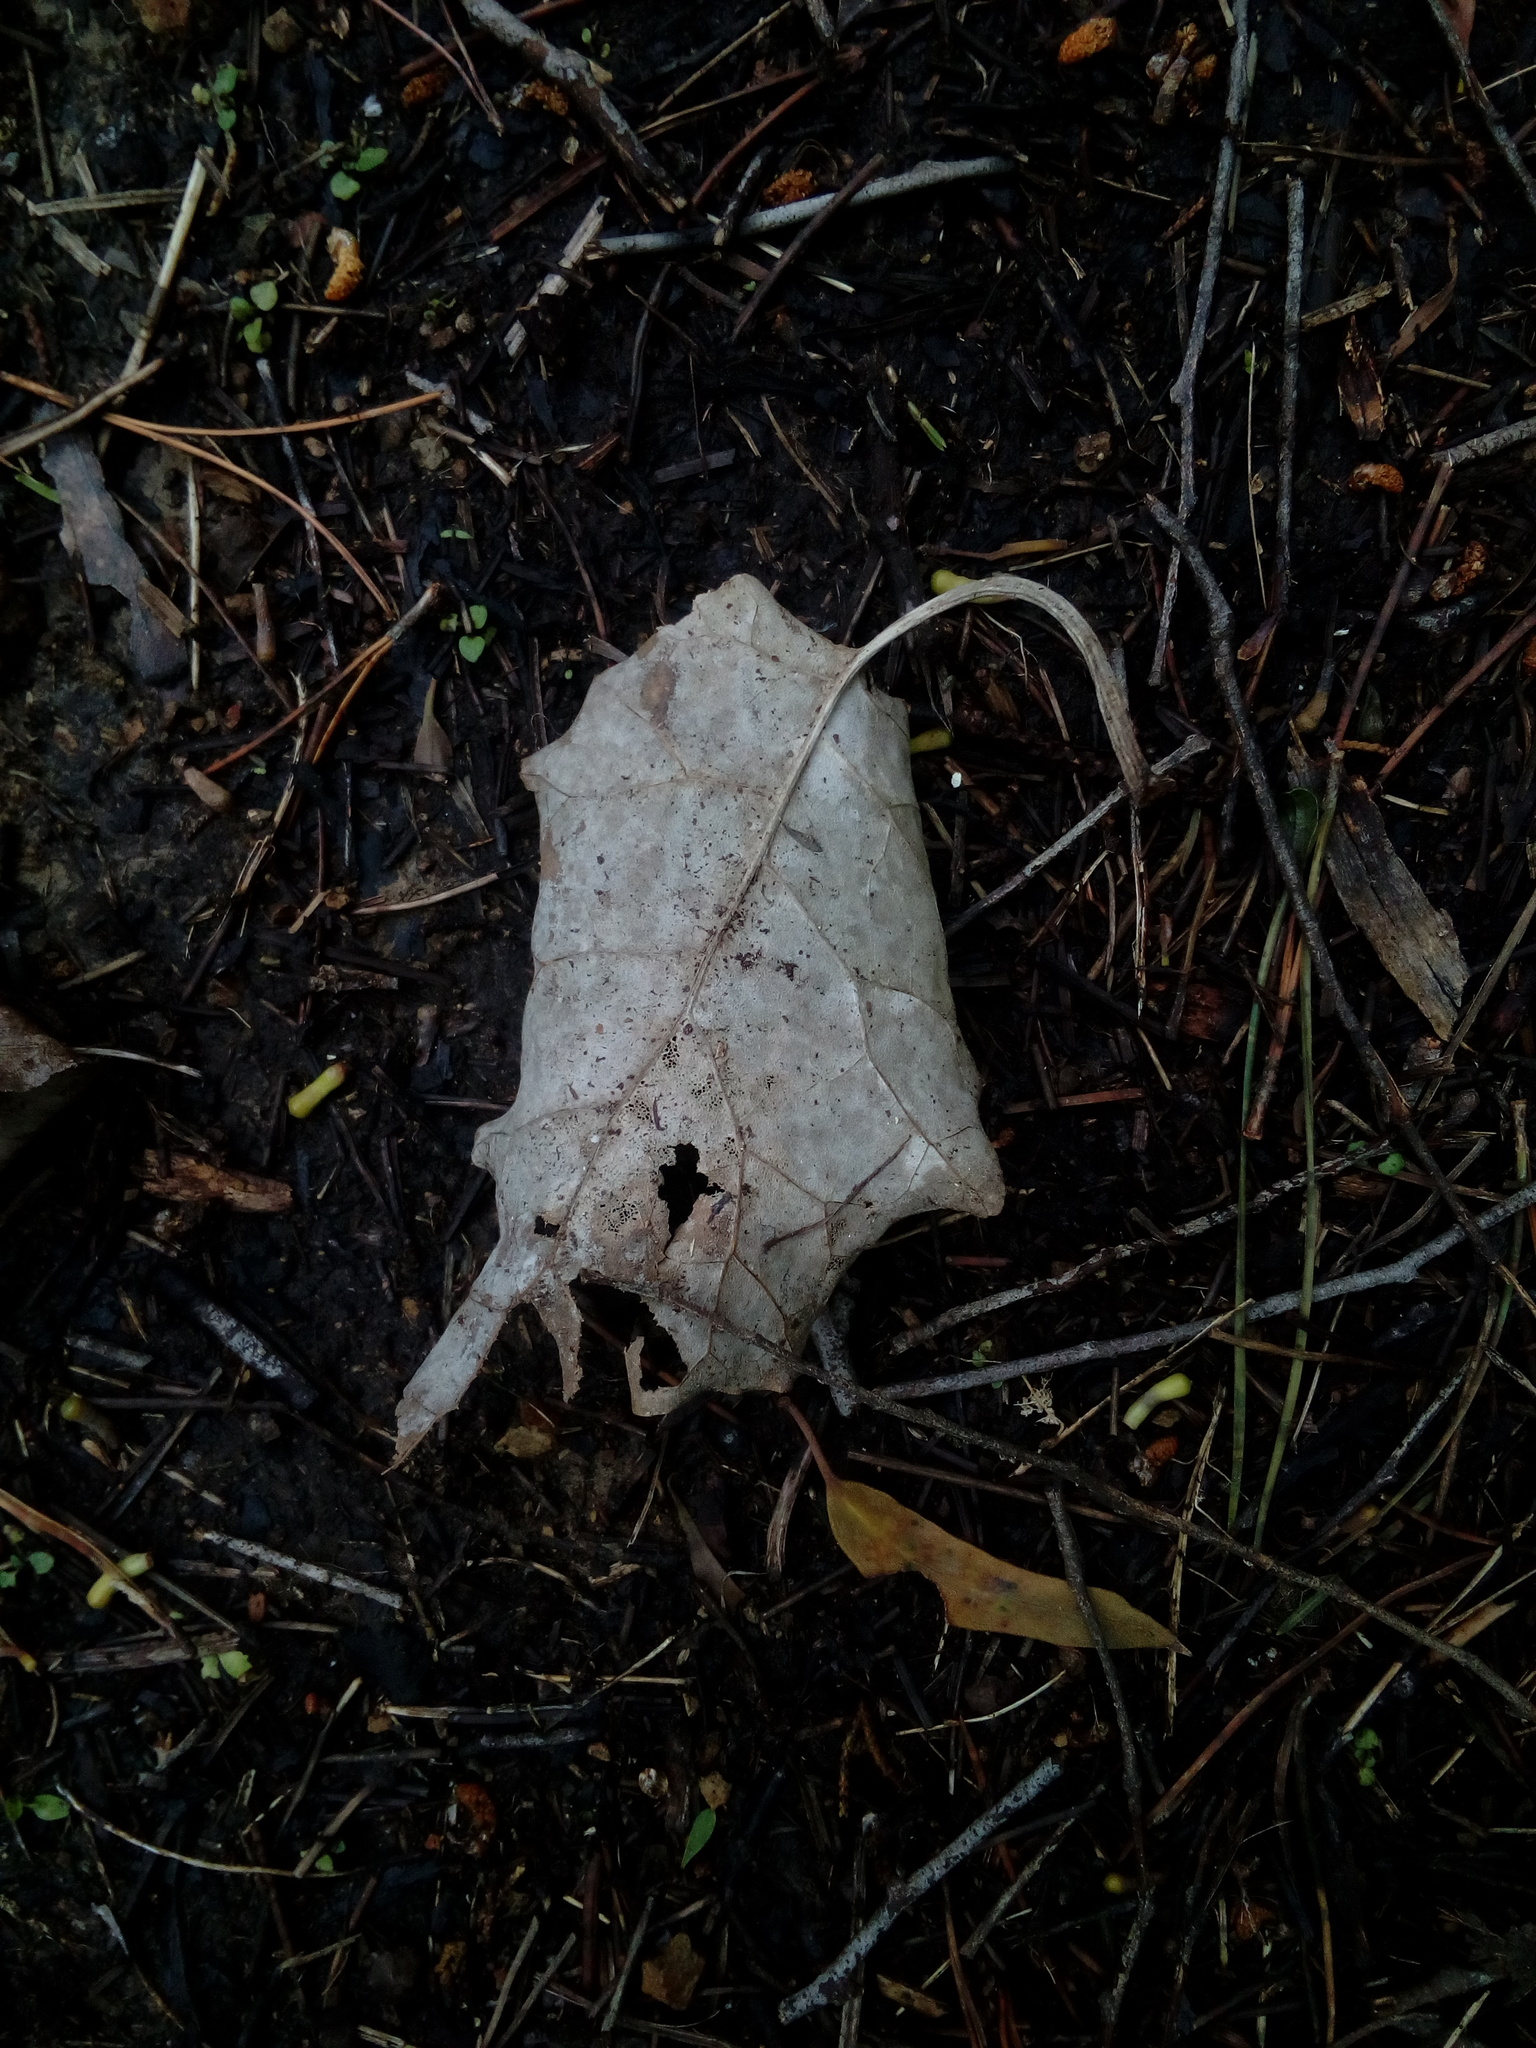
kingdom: Plantae
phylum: Tracheophyta
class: Magnoliopsida
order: Asterales
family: Asteraceae
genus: Brachyglottis
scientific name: Brachyglottis repanda
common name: Hedge ragwort
